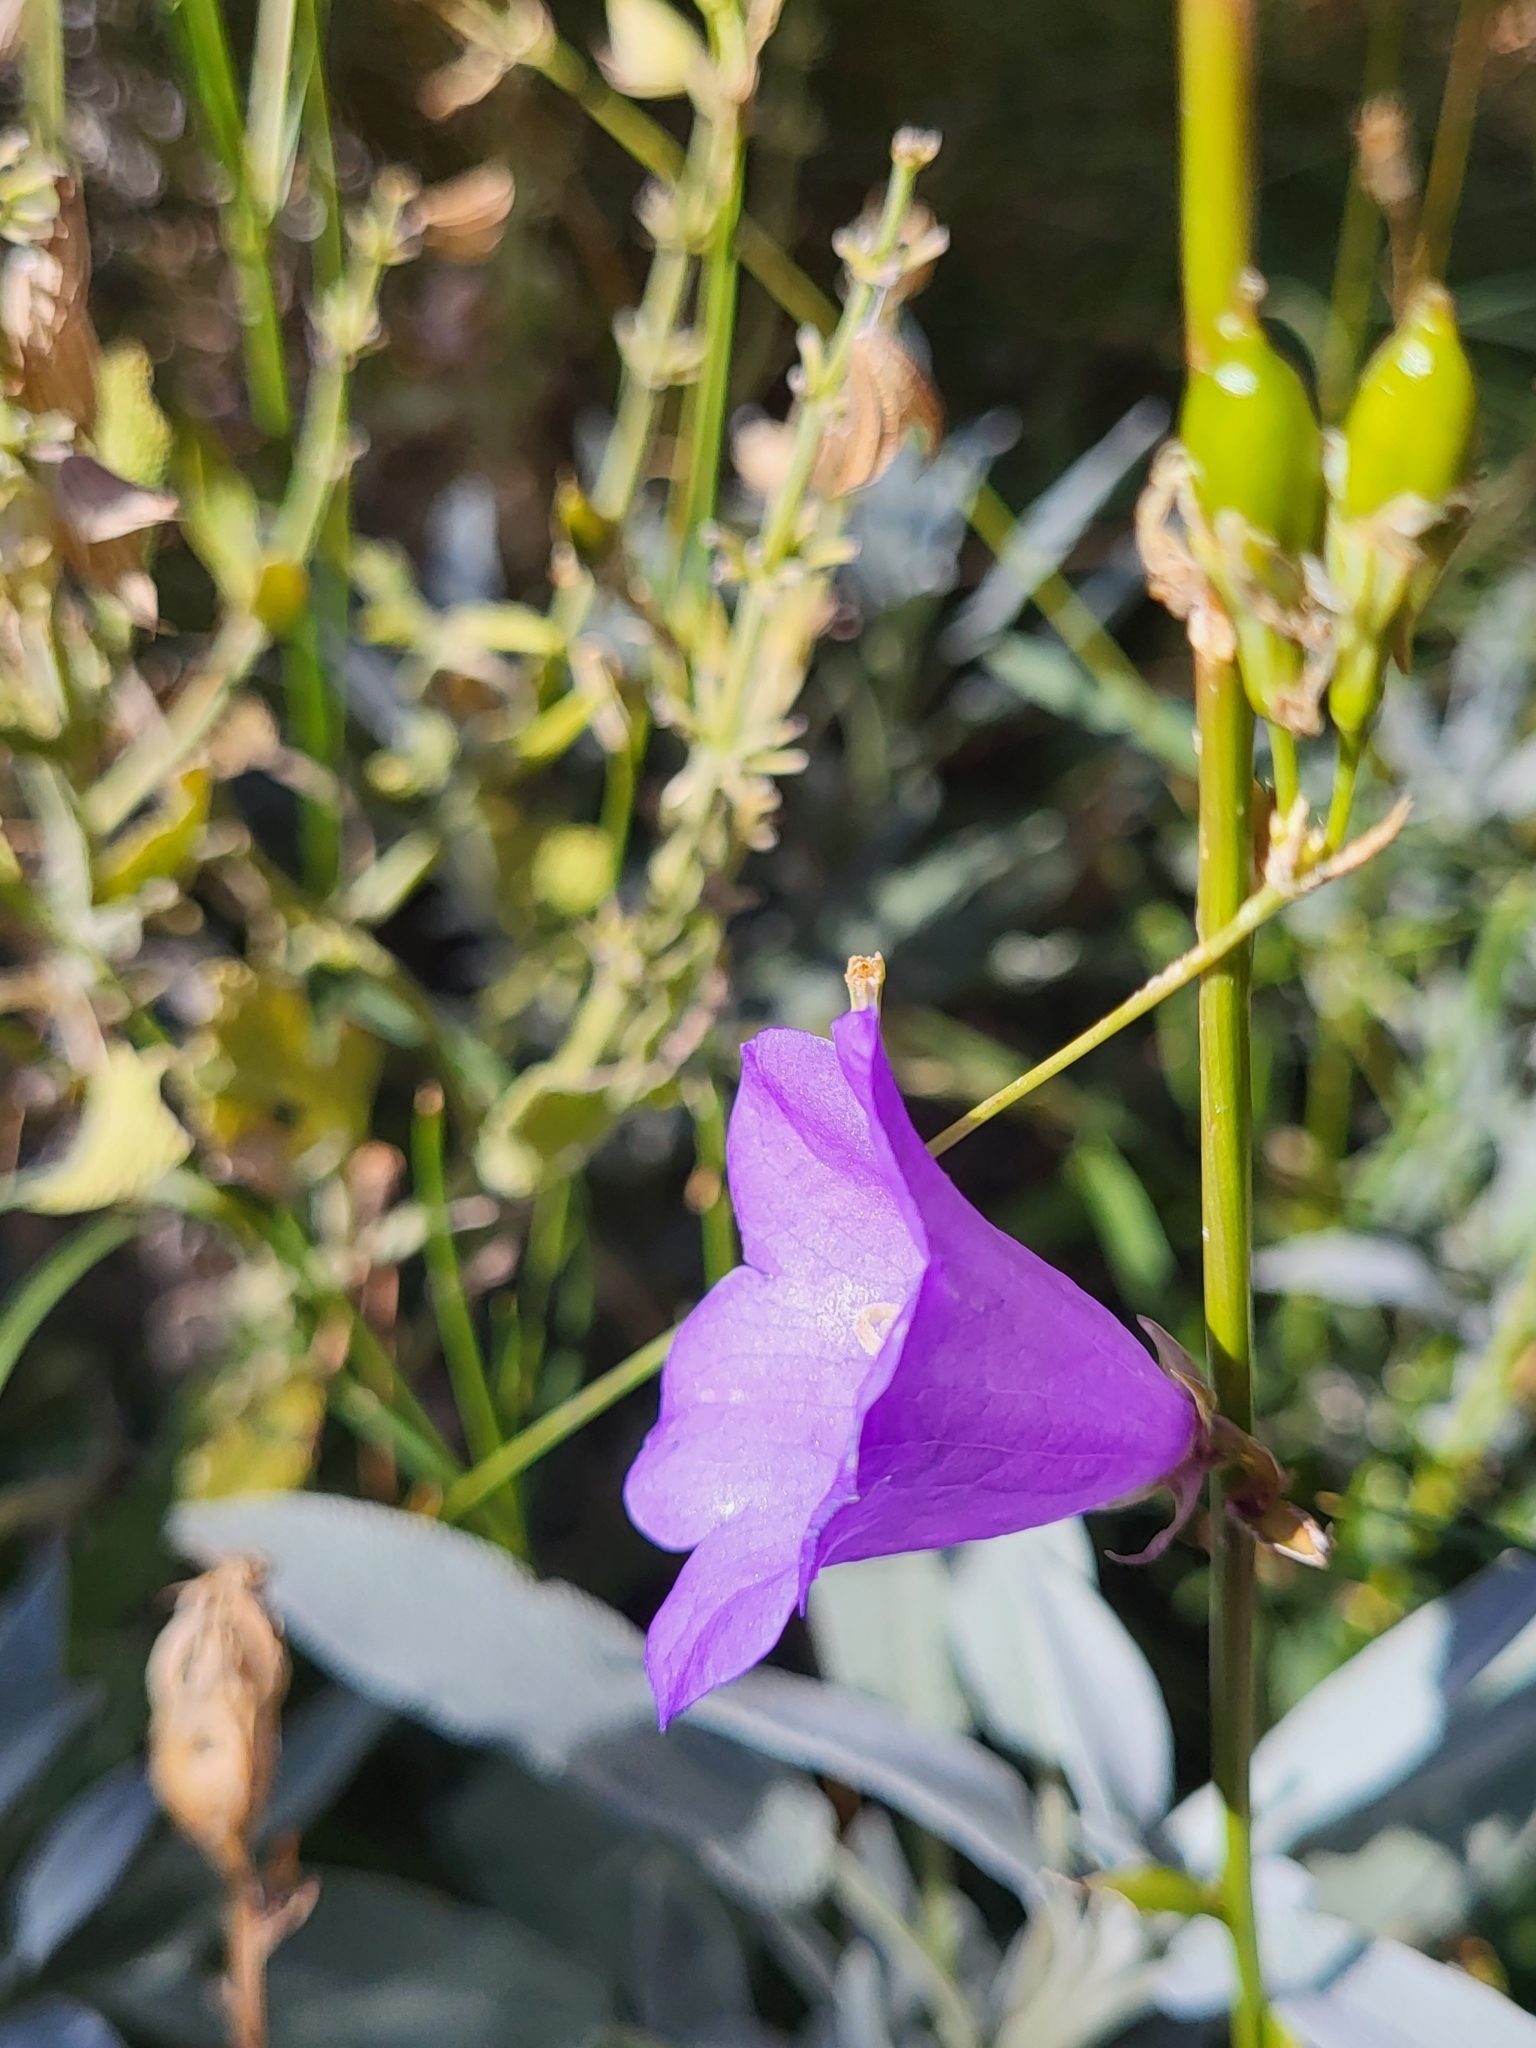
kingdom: Plantae
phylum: Tracheophyta
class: Magnoliopsida
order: Asterales
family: Campanulaceae
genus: Campanula
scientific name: Campanula persicifolia
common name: Peach-leaved bellflower
